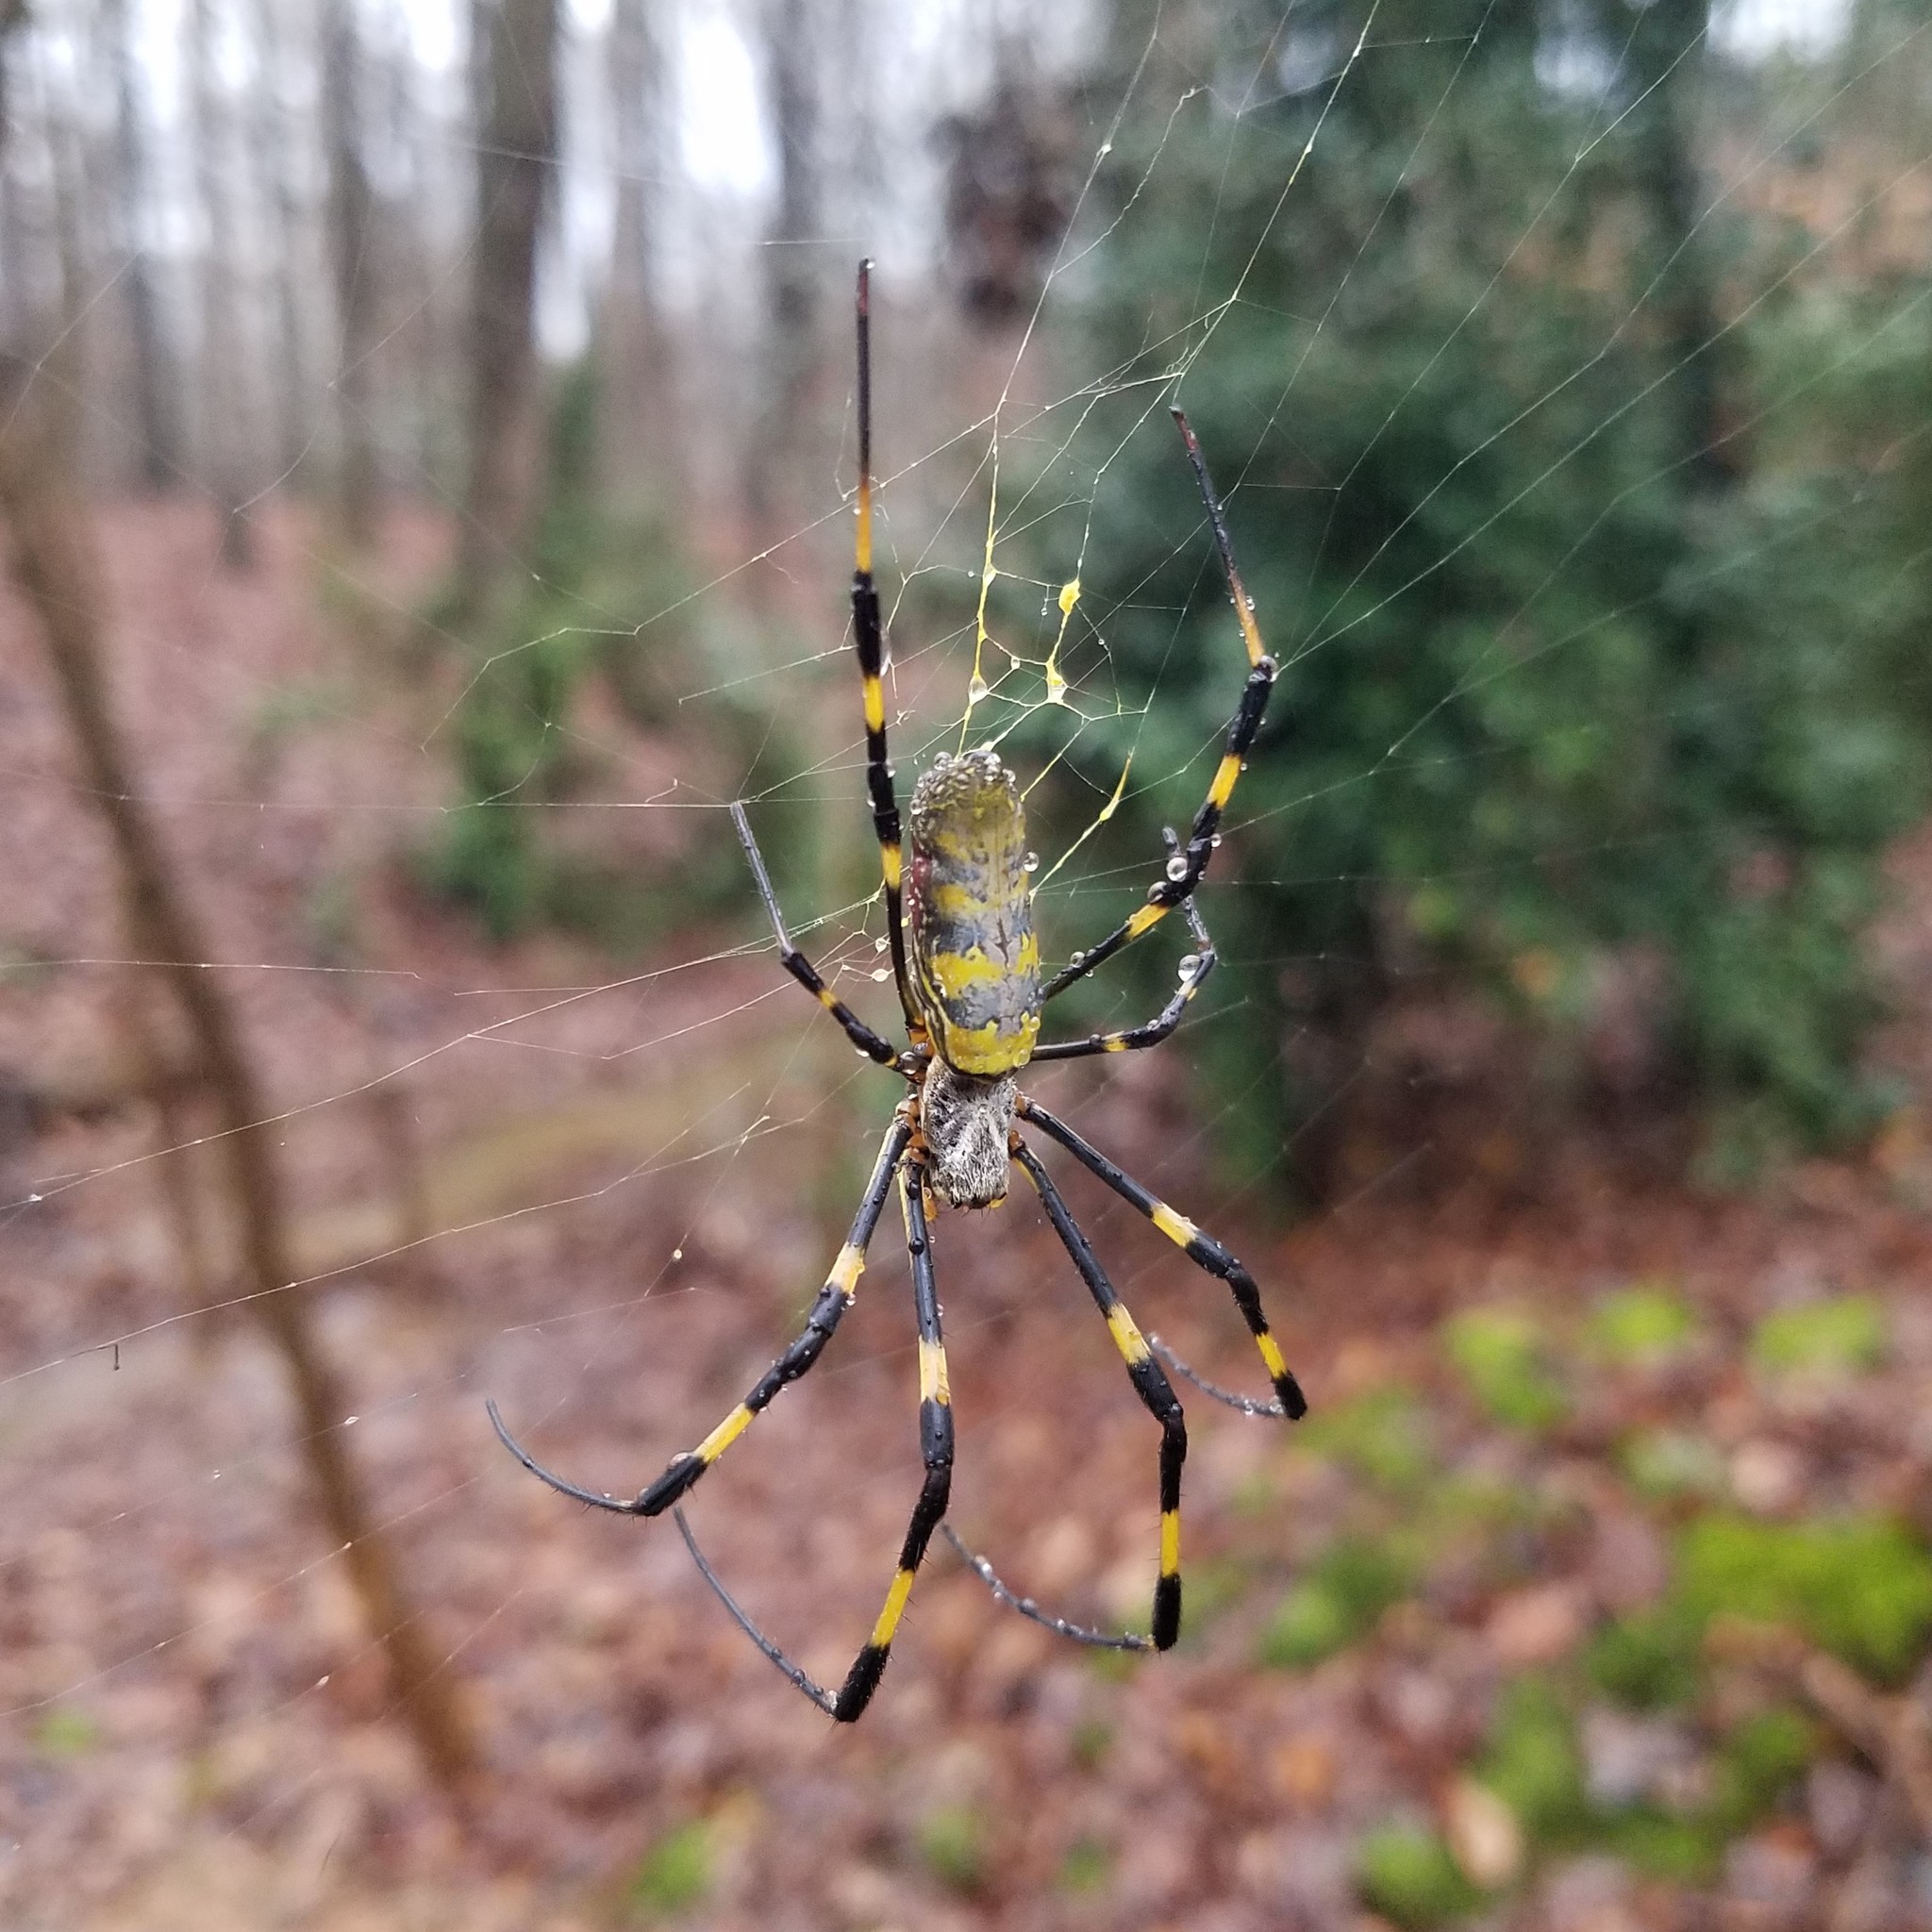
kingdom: Animalia
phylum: Arthropoda
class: Arachnida
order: Araneae
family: Araneidae
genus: Trichonephila
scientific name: Trichonephila clavata
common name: Jorō spider
